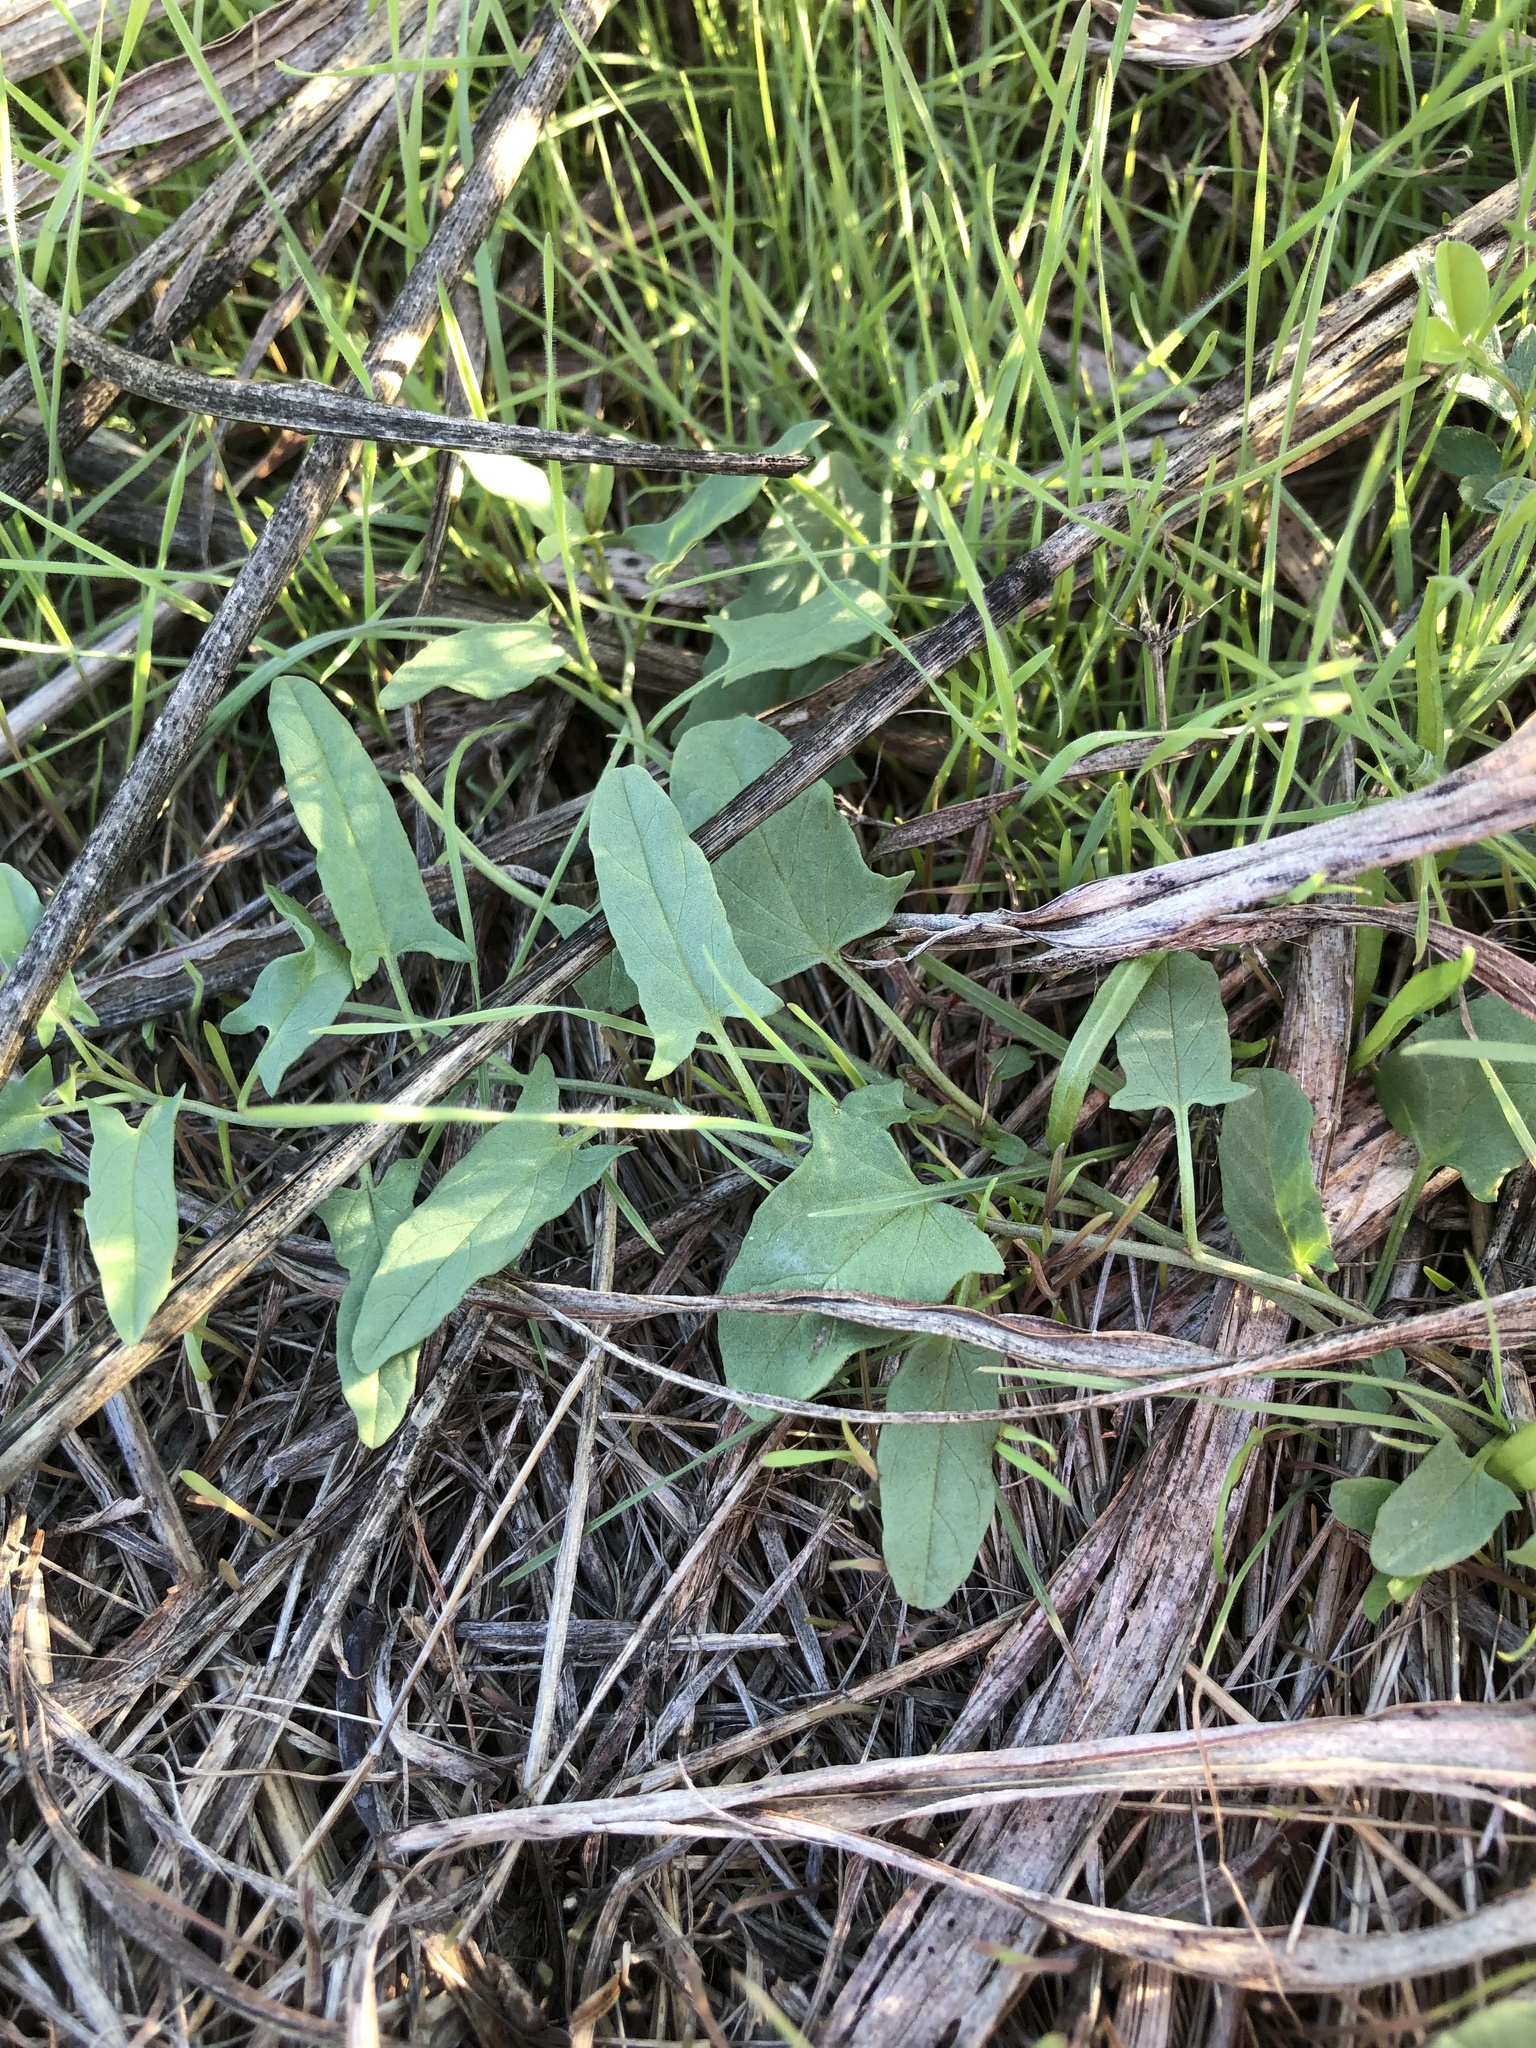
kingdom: Plantae
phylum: Tracheophyta
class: Magnoliopsida
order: Solanales
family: Convolvulaceae
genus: Convolvulus
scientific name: Convolvulus arvensis
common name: Field bindweed
